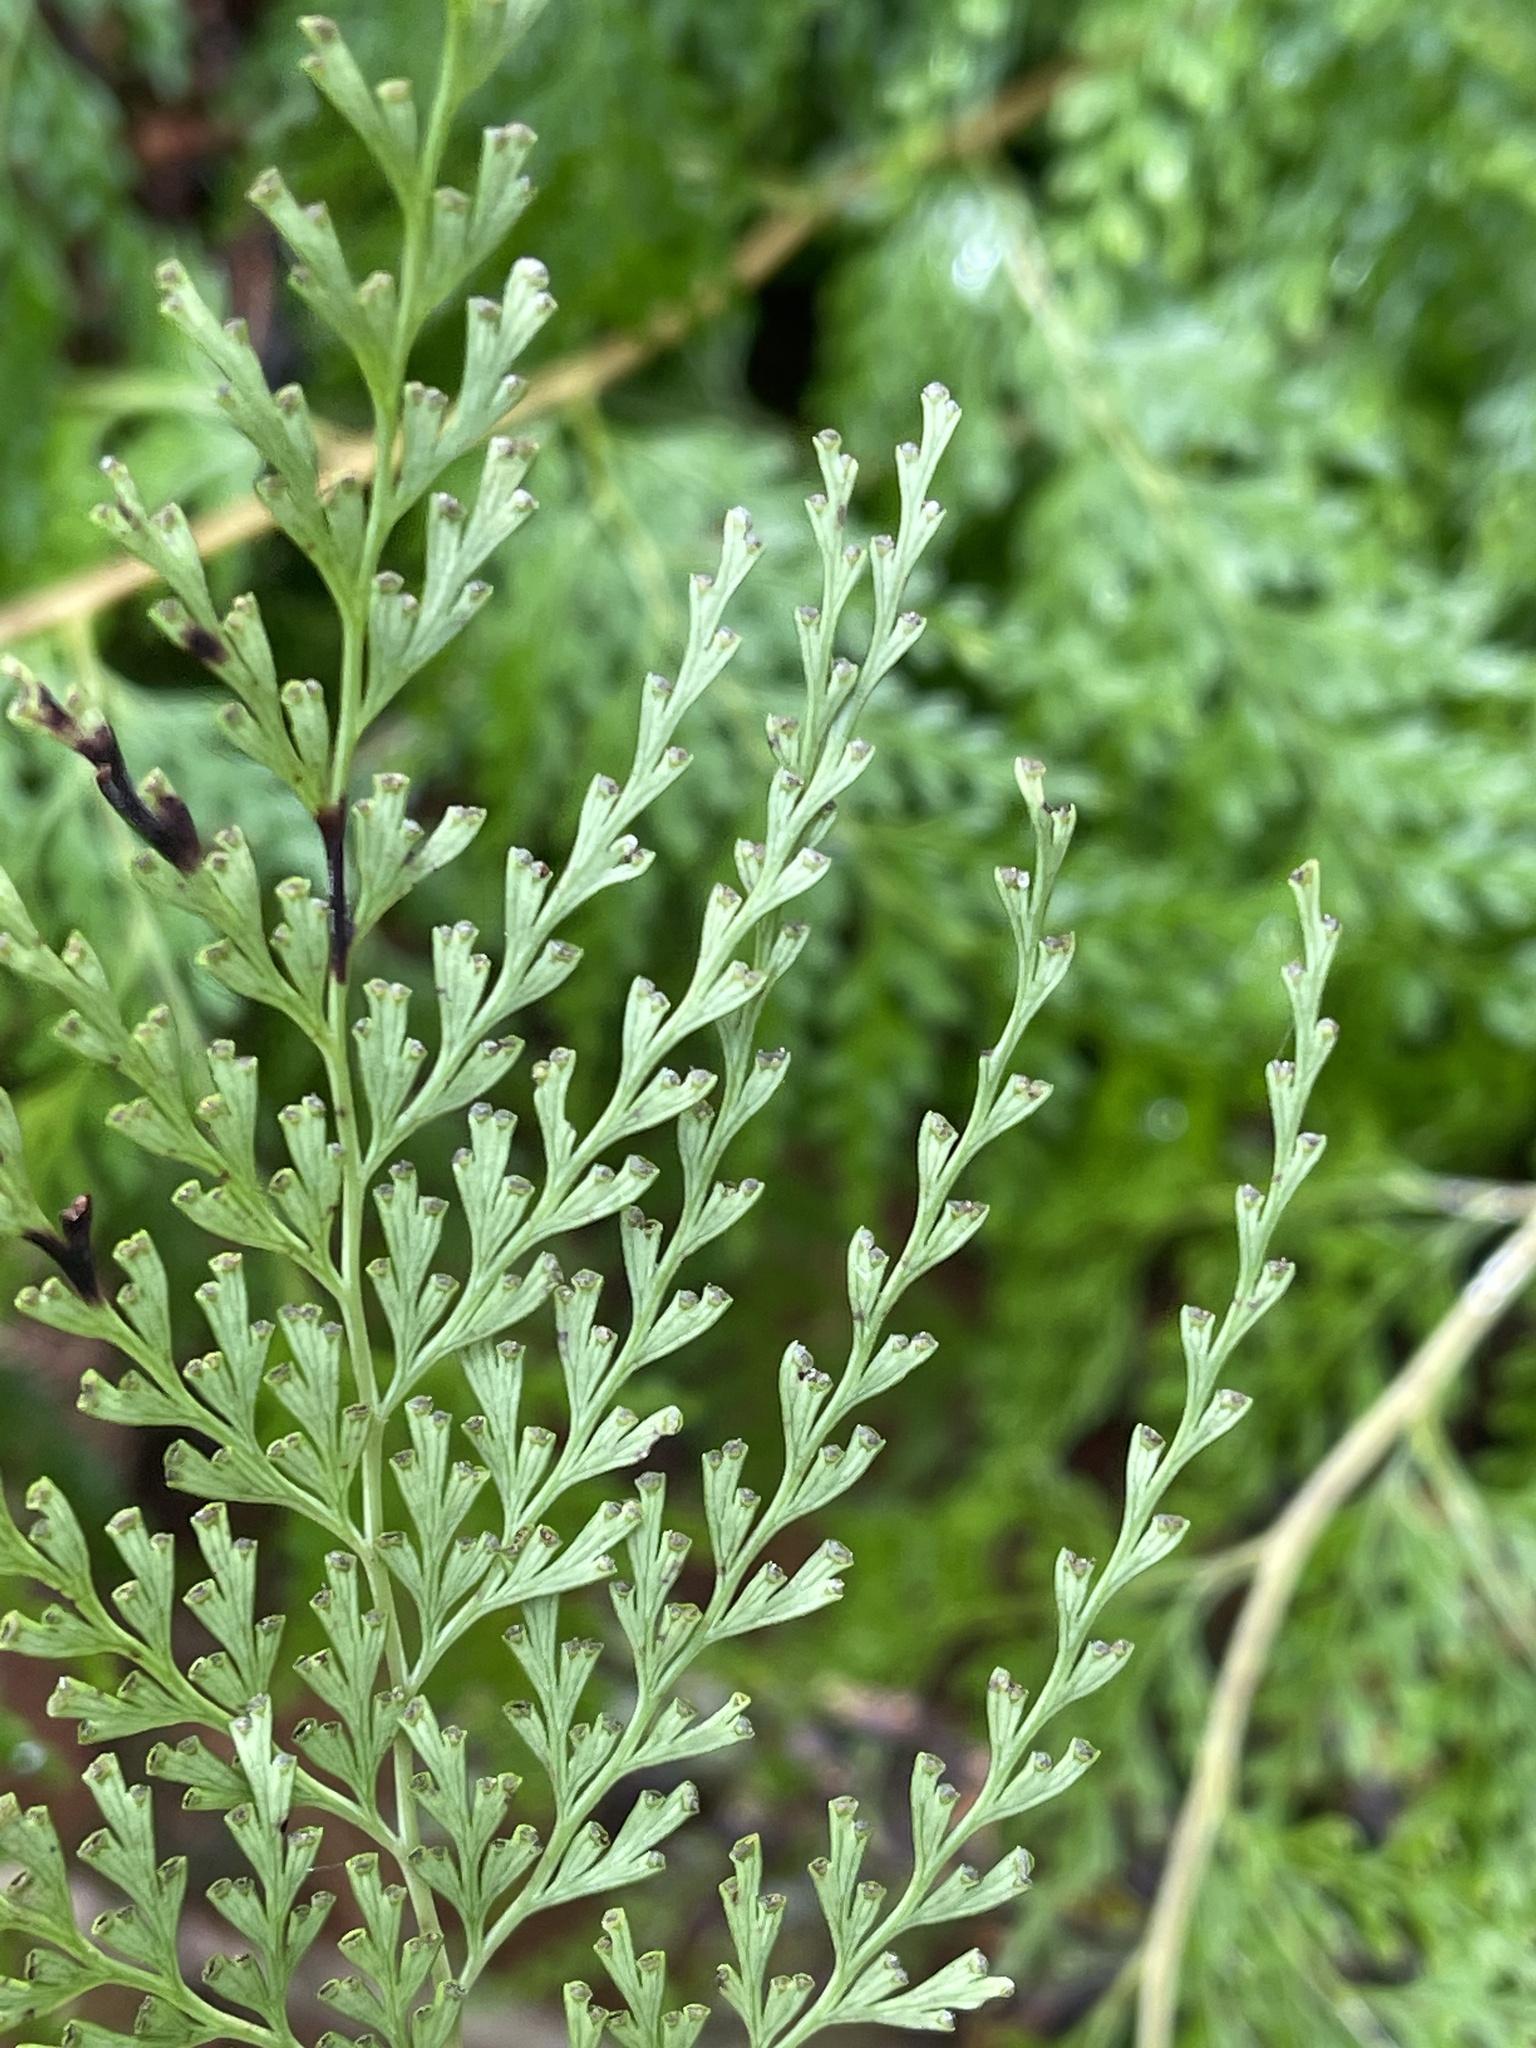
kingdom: Plantae
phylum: Tracheophyta
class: Polypodiopsida
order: Polypodiales
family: Lindsaeaceae
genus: Odontosoria
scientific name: Odontosoria chinensis
